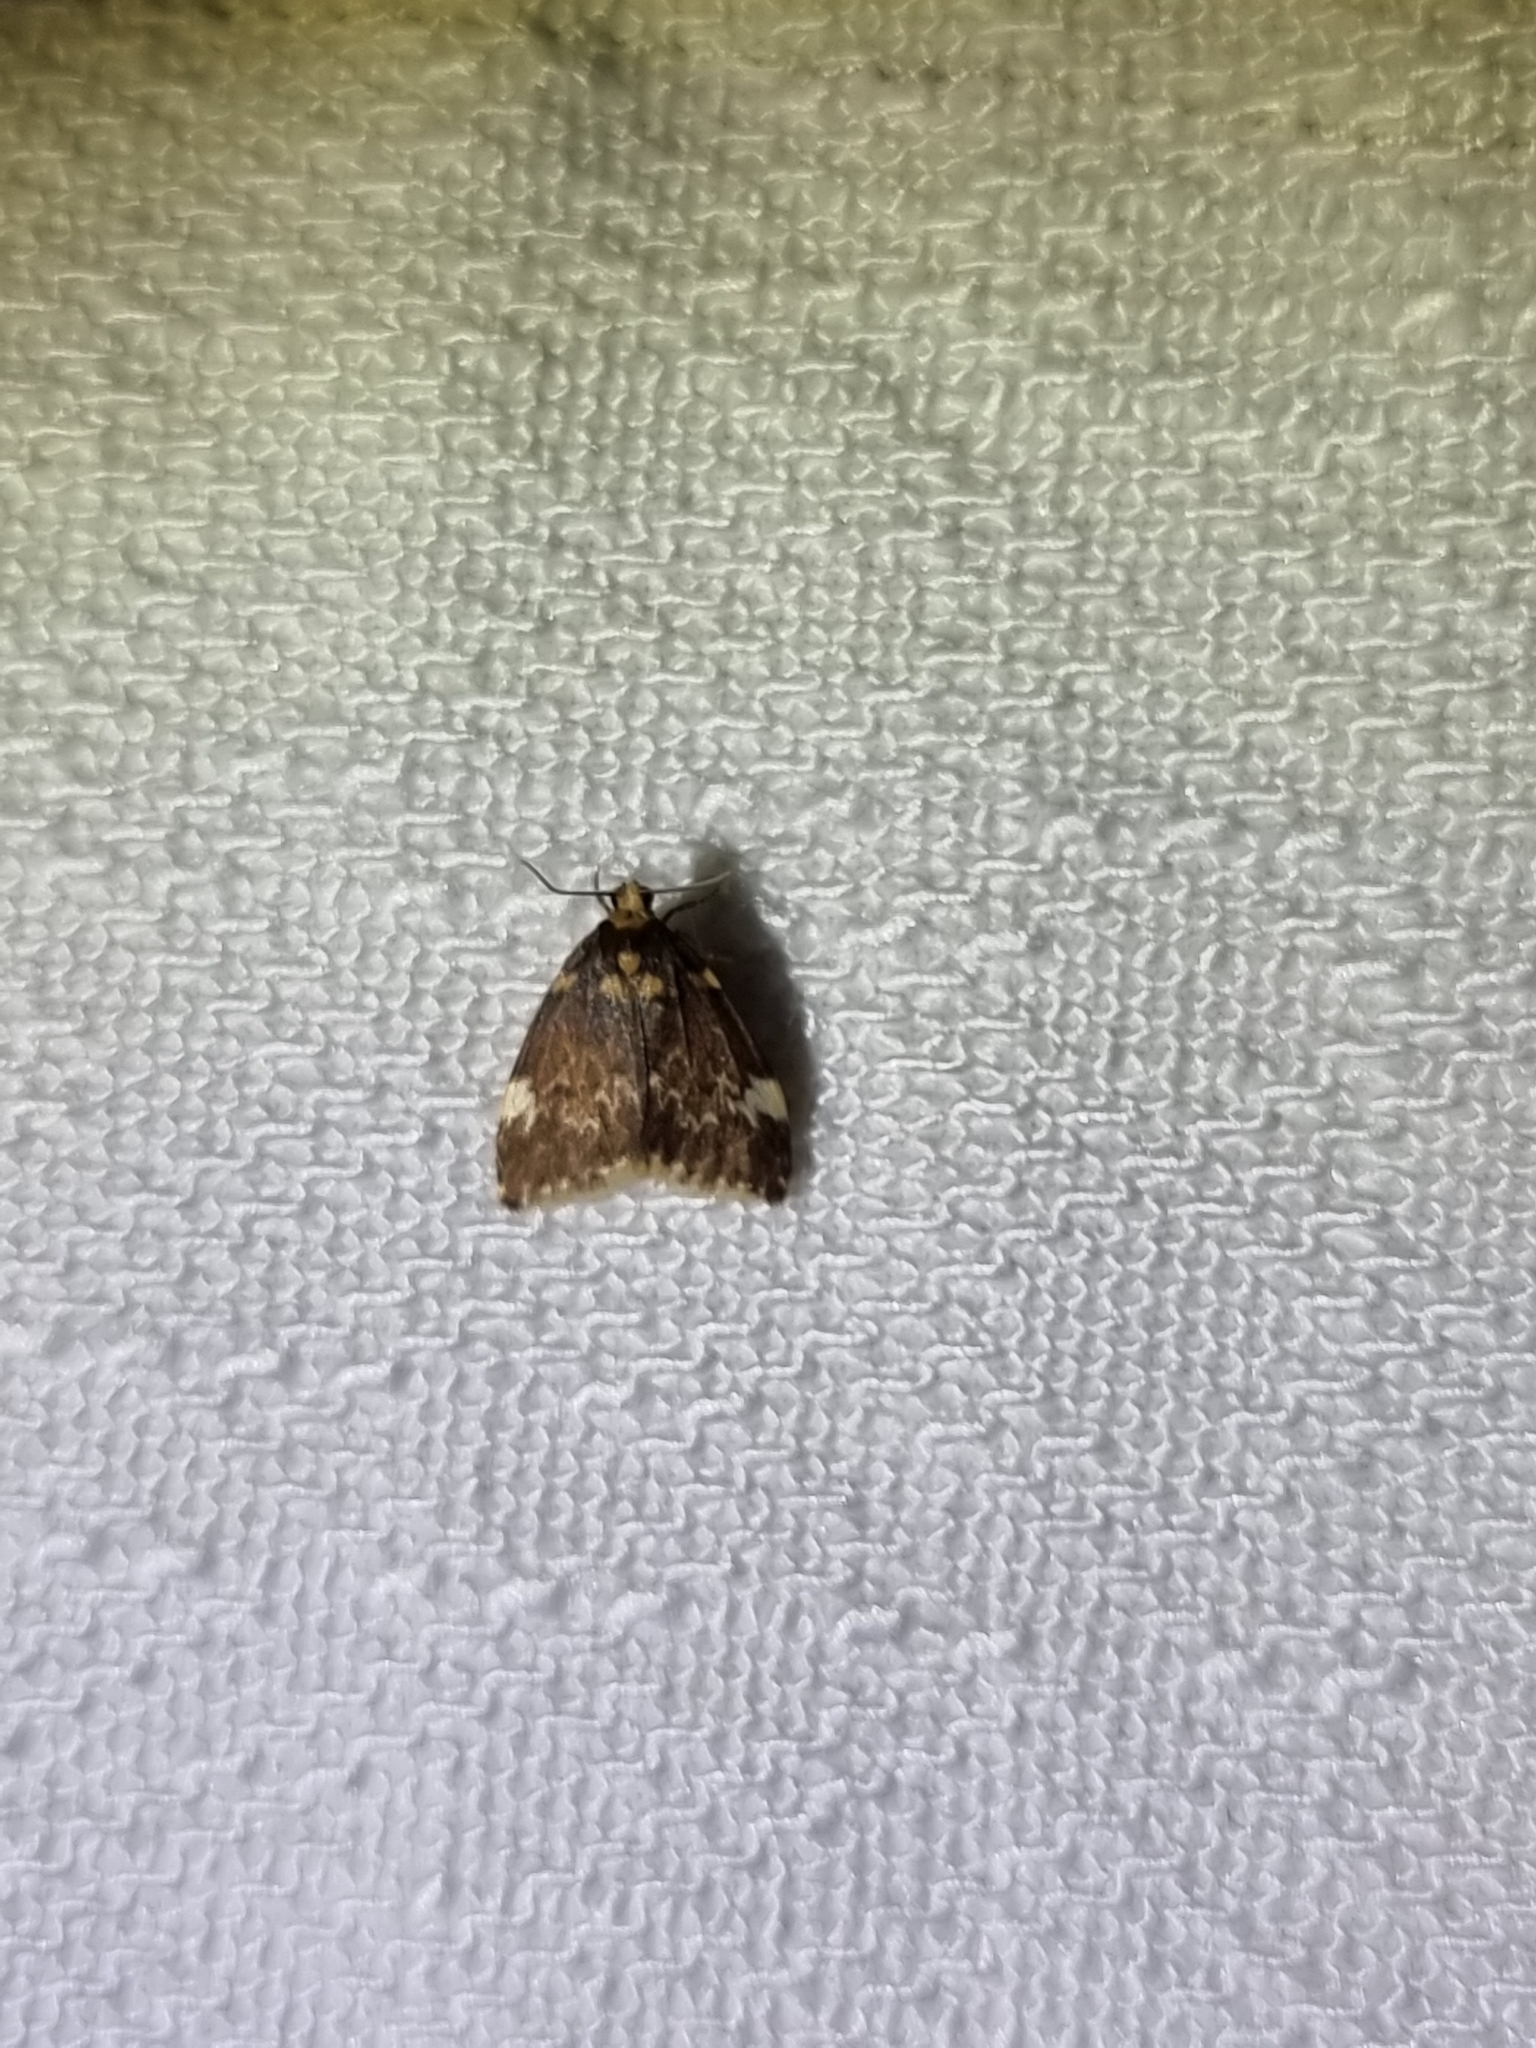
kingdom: Animalia
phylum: Arthropoda
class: Insecta
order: Lepidoptera
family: Erebidae
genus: Halone
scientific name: Halone pteridaula
